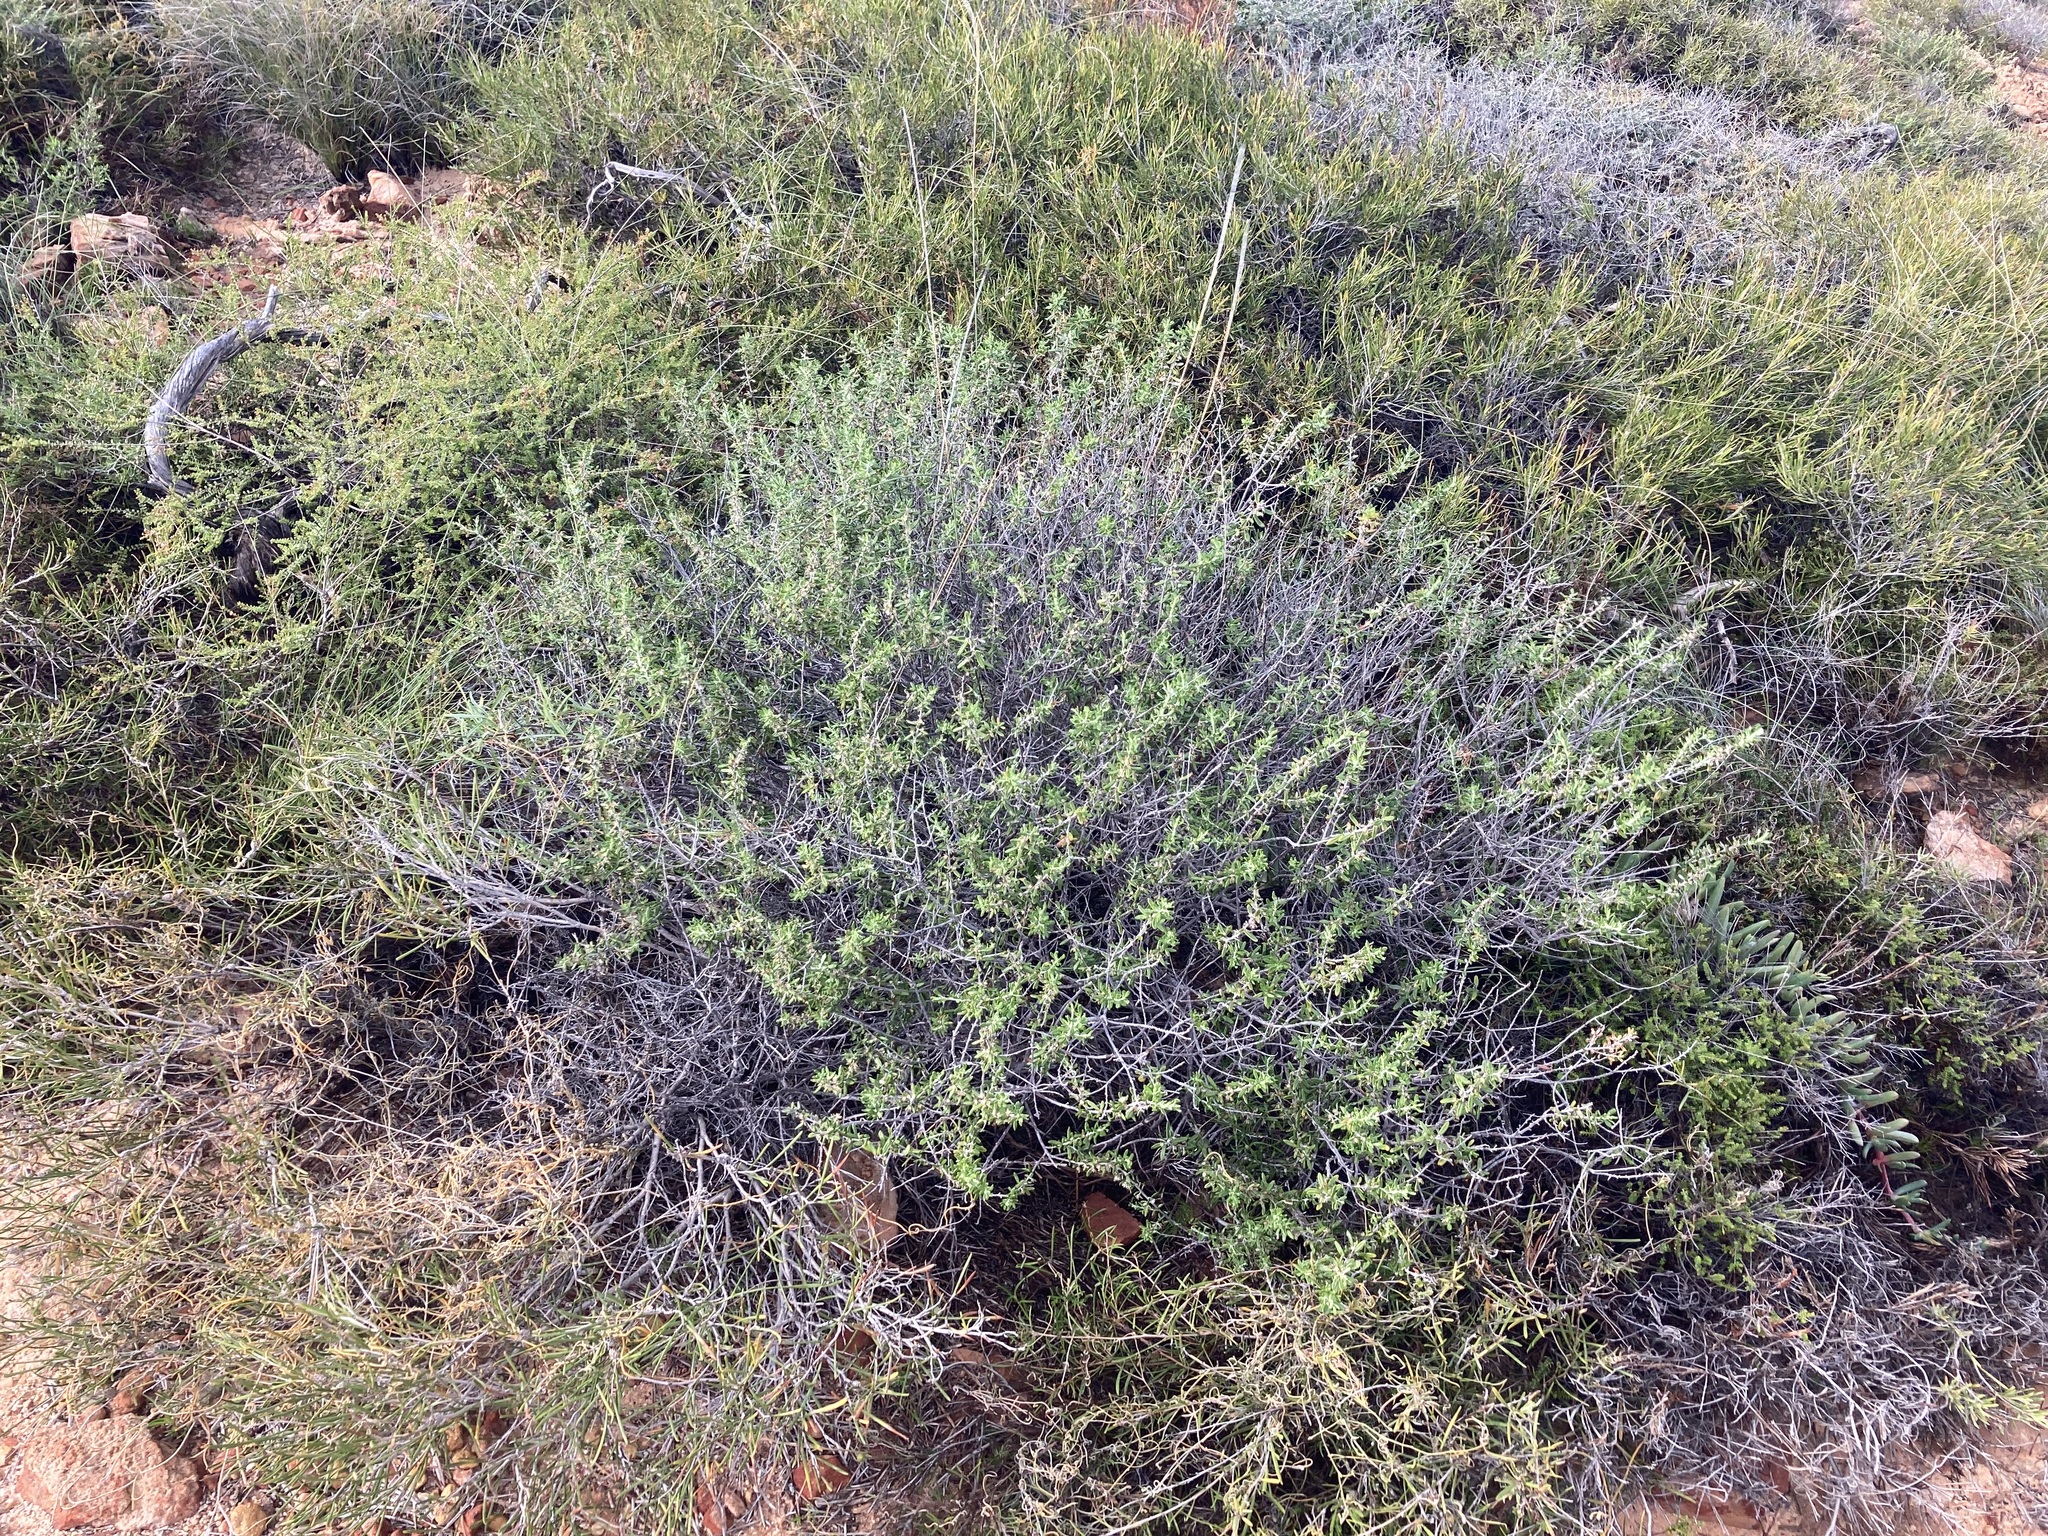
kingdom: Plantae
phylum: Tracheophyta
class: Magnoliopsida
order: Asterales
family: Asteraceae
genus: Olearia
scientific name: Olearia revoluta
